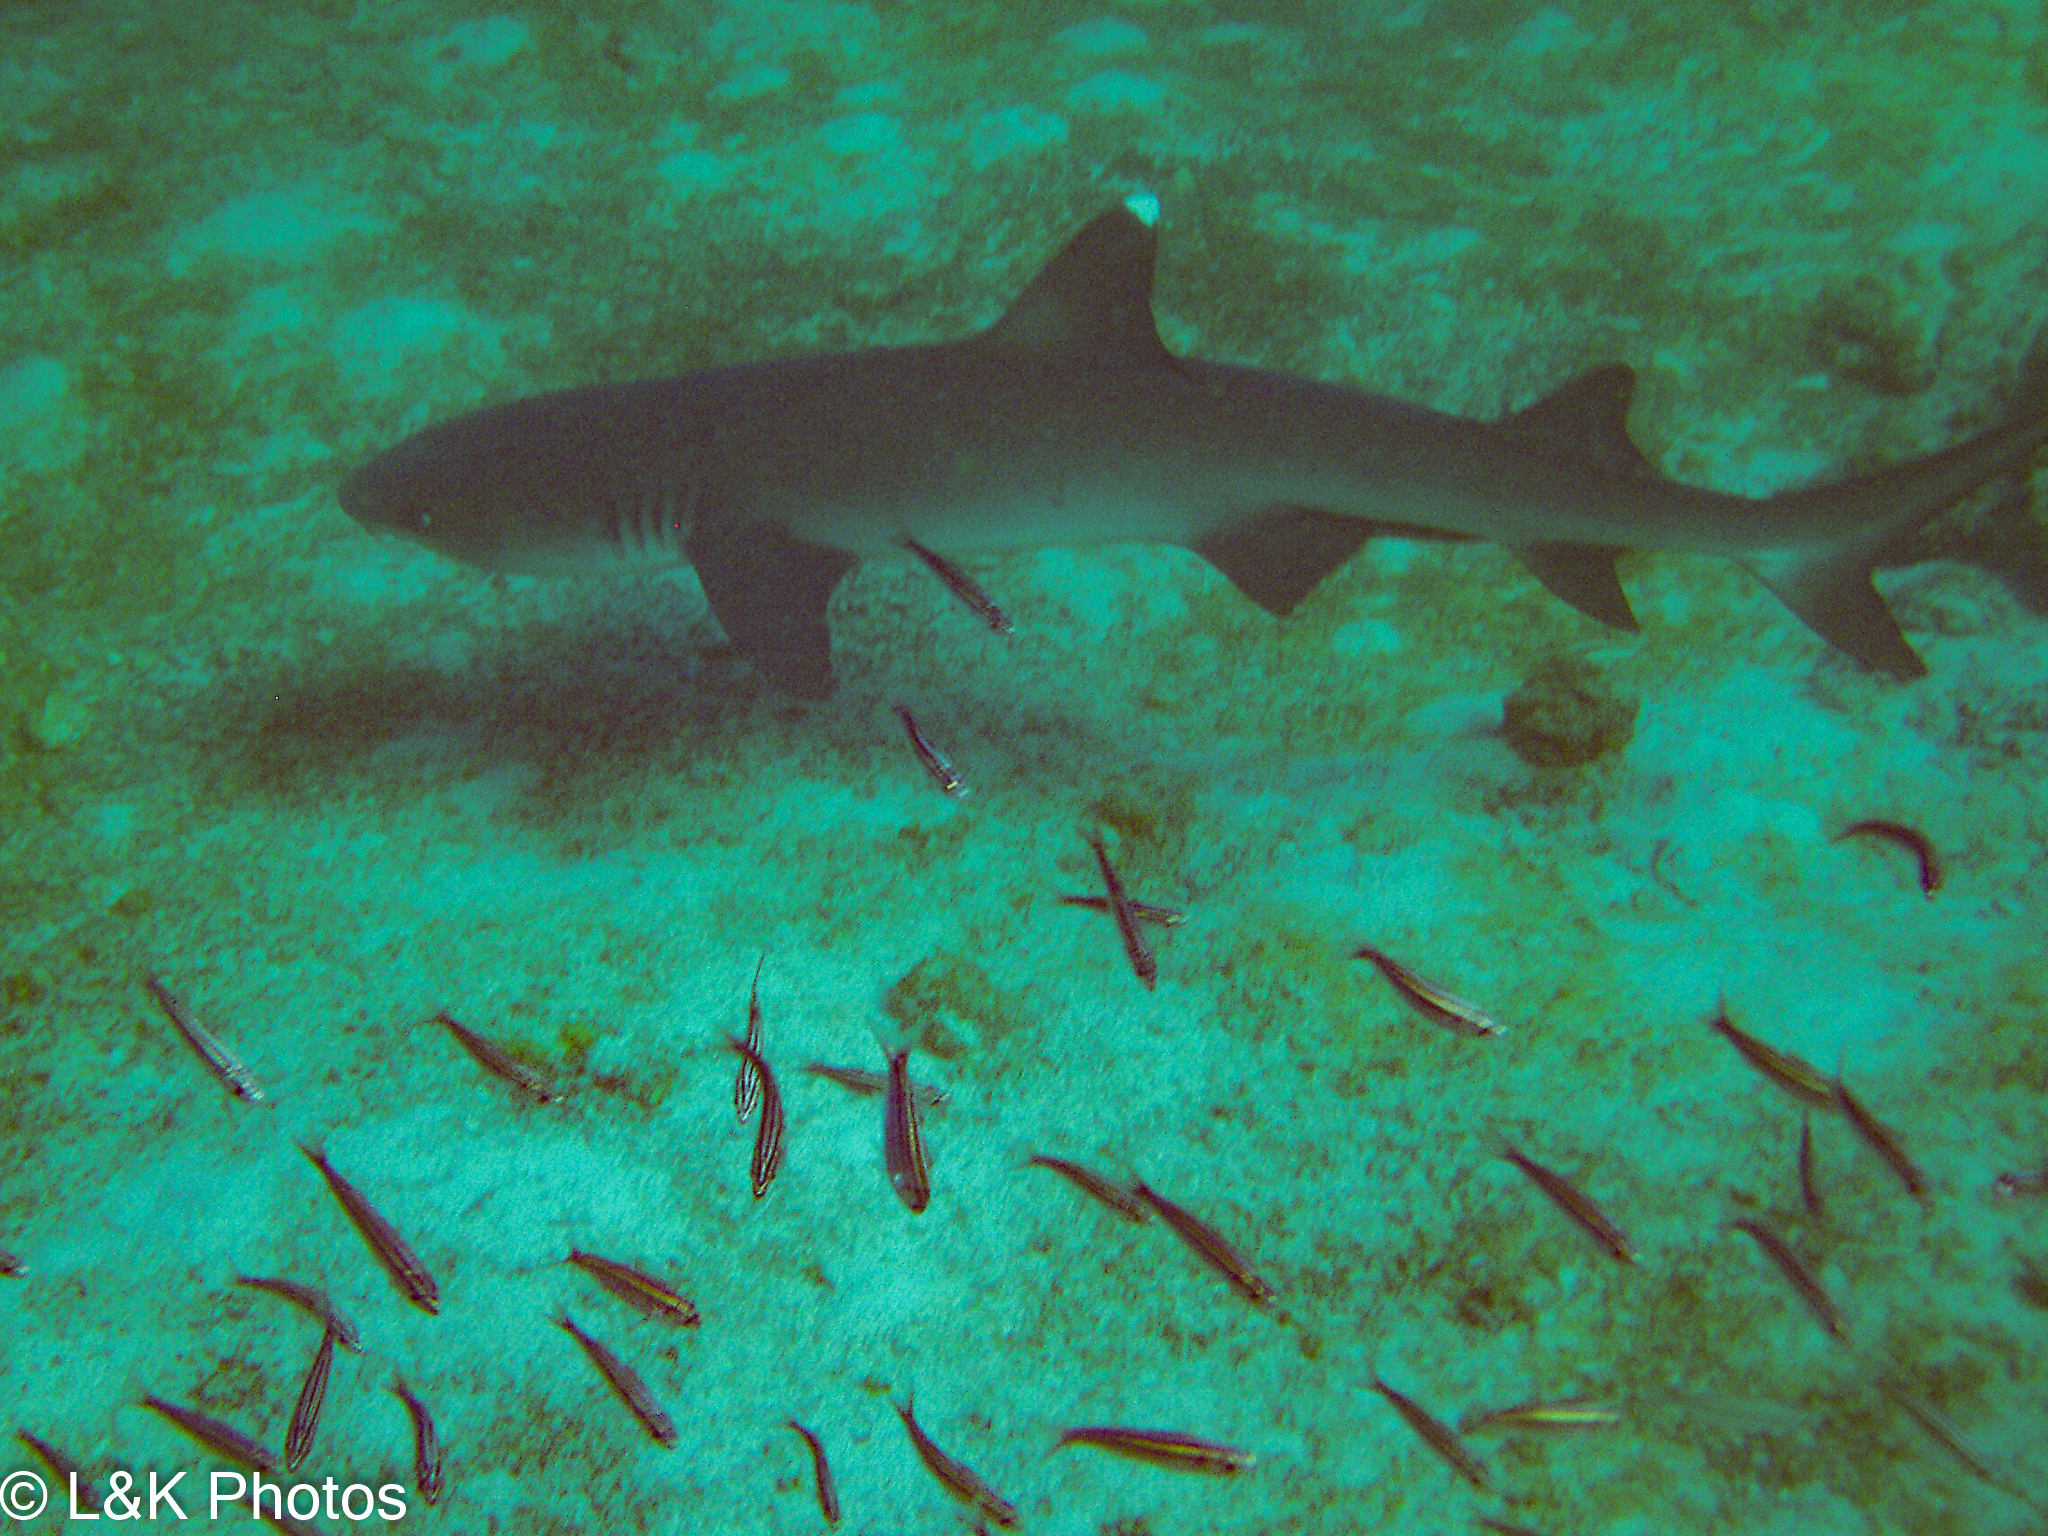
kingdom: Animalia
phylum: Chordata
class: Elasmobranchii
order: Carcharhiniformes
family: Carcharhinidae
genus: Triaenodon
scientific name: Triaenodon obesus
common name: Whitetip reef shark
